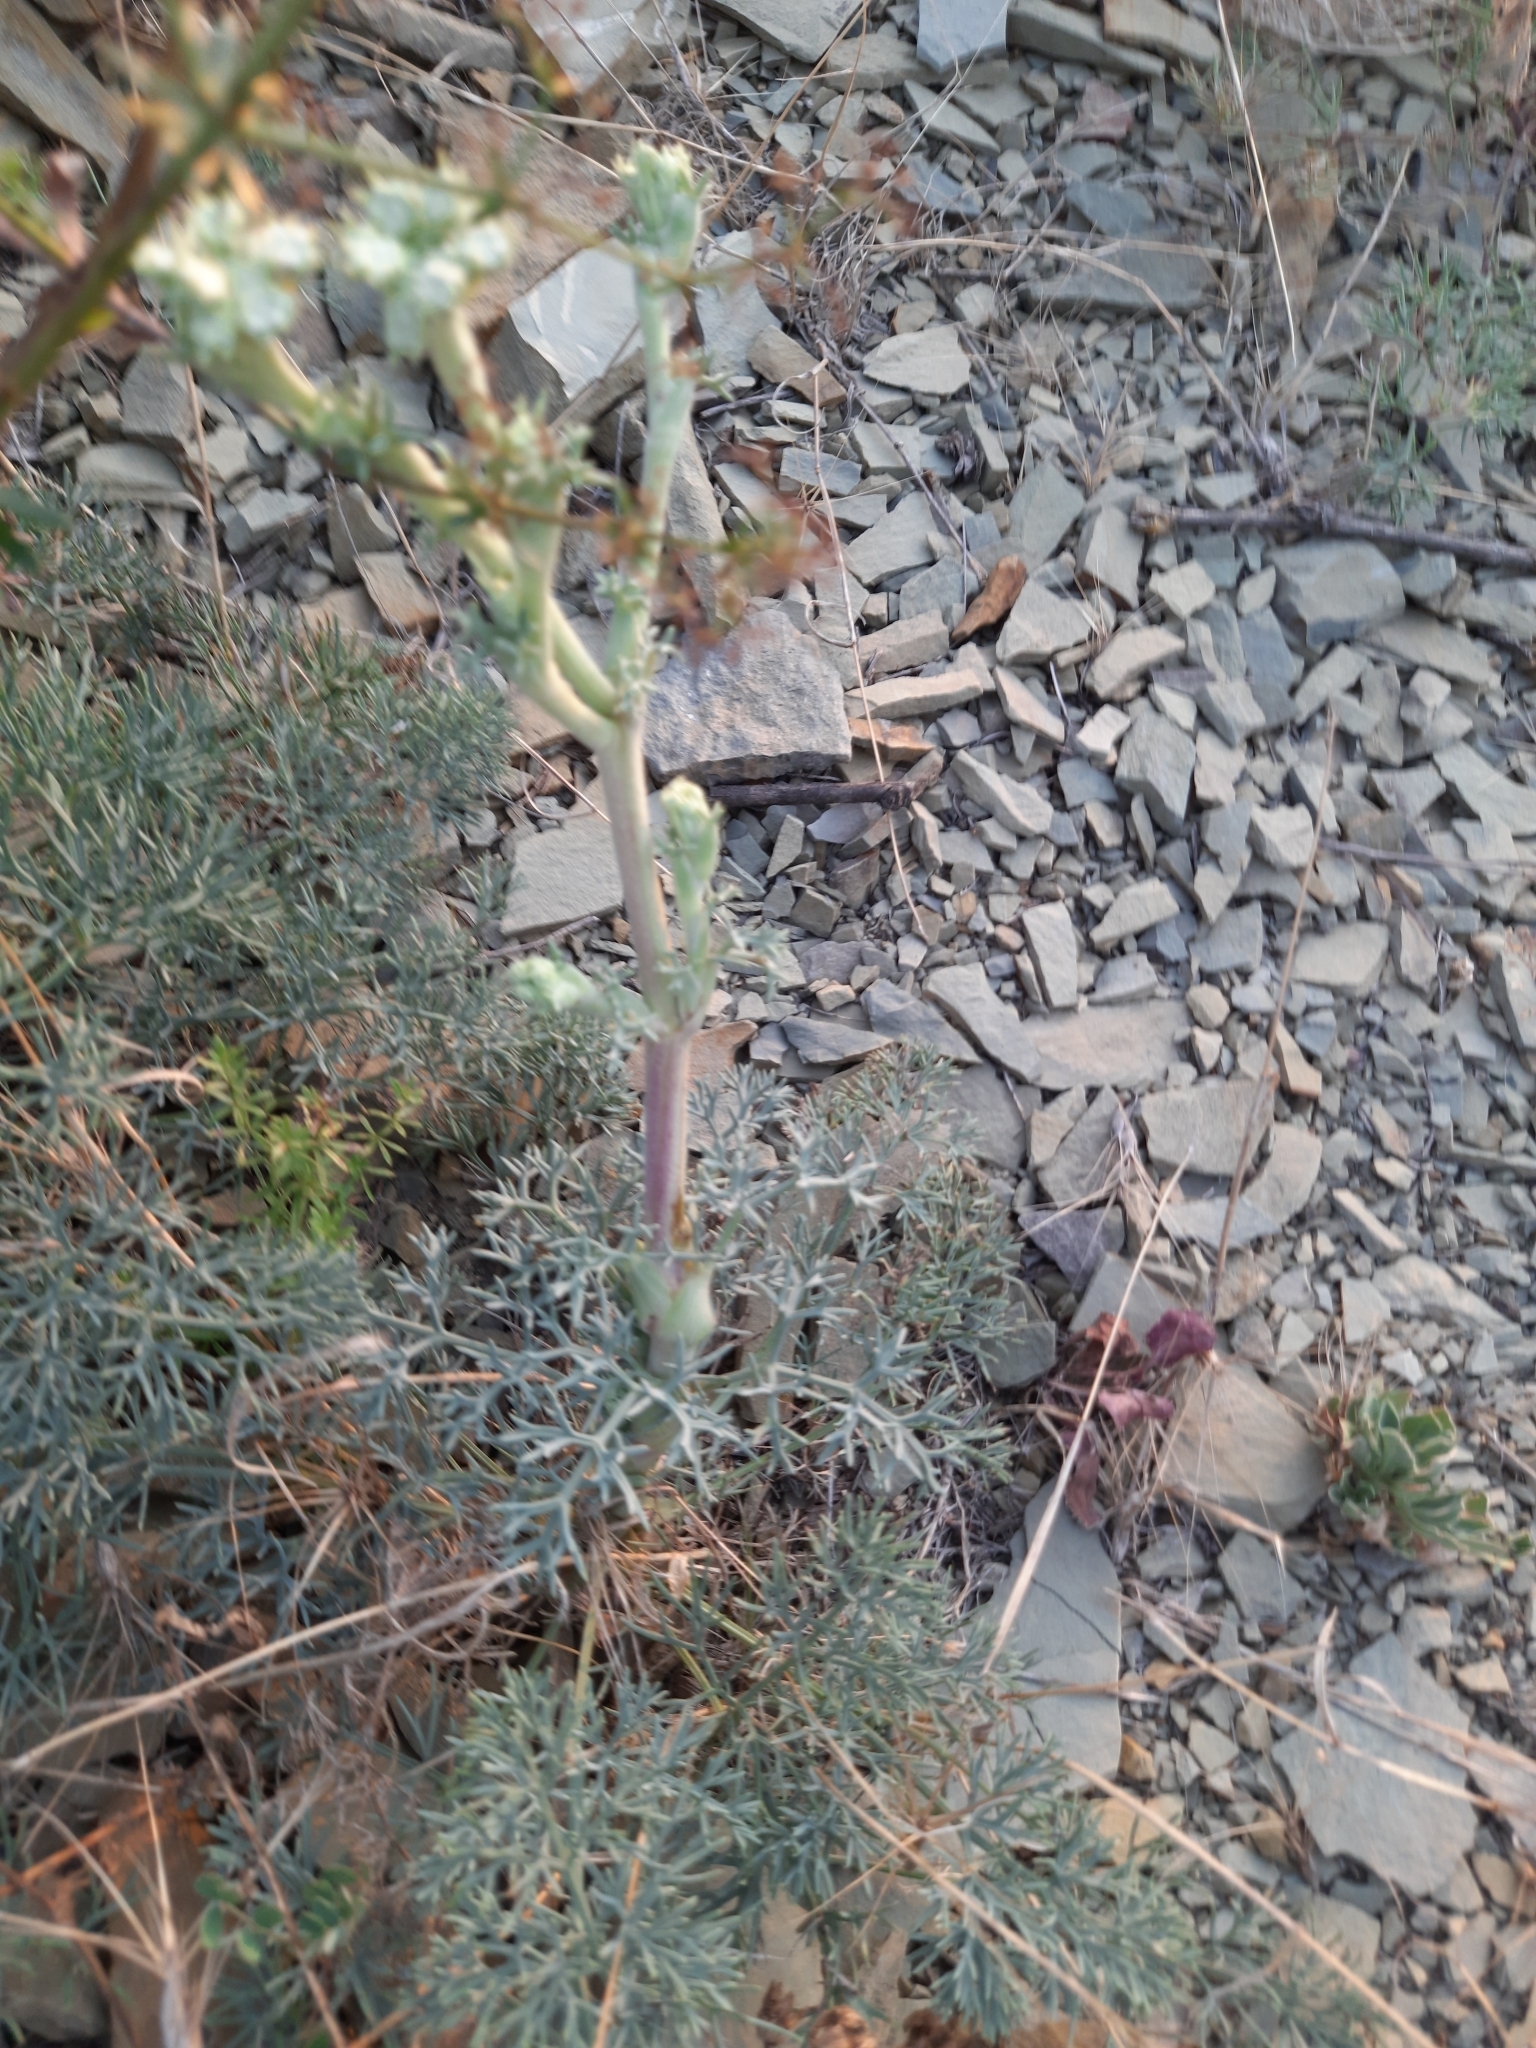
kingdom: Plantae
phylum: Tracheophyta
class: Magnoliopsida
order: Apiales
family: Apiaceae
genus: Seseli
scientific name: Seseli ponticum
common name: Pontic seseli
